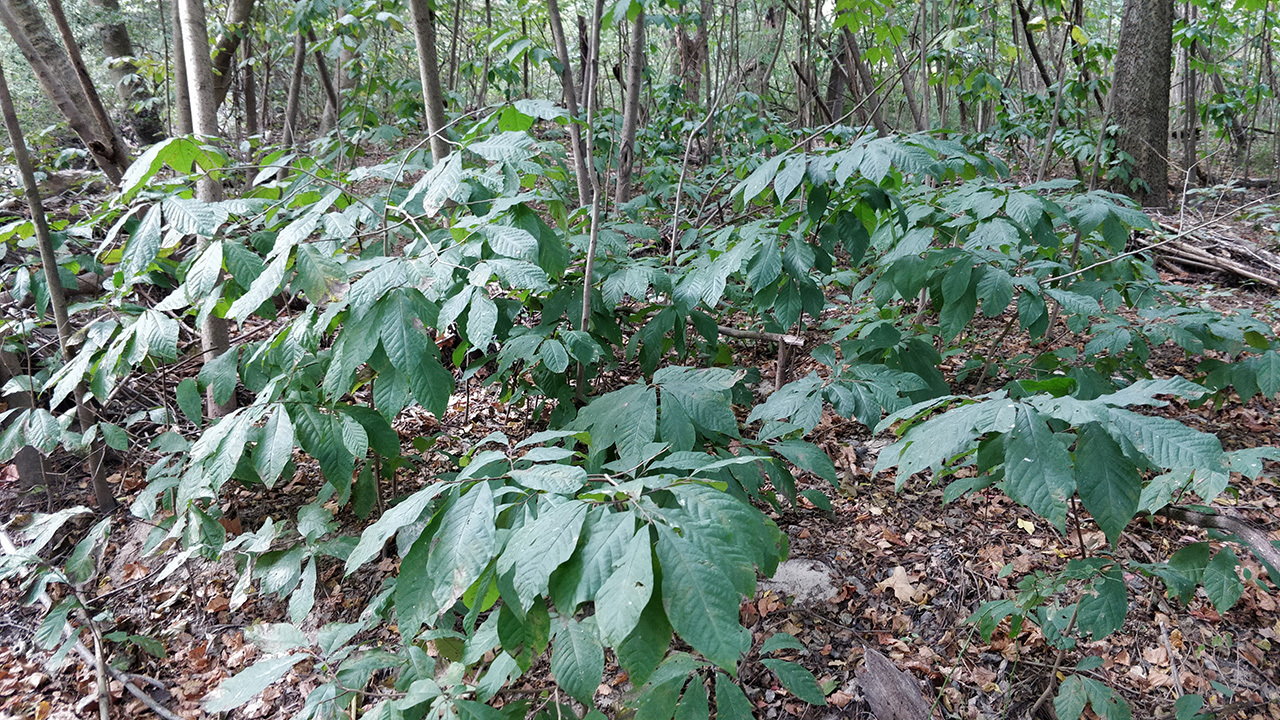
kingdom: Plantae
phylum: Tracheophyta
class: Magnoliopsida
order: Magnoliales
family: Annonaceae
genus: Asimina
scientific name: Asimina triloba
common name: Dog-banana
